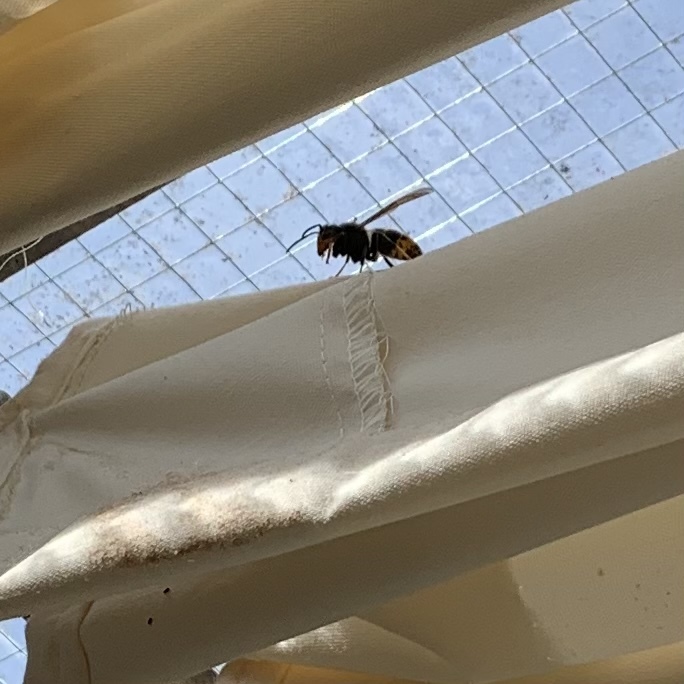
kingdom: Animalia
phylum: Arthropoda
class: Insecta
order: Hymenoptera
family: Vespidae
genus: Vespa
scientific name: Vespa velutina
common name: Asian hornet
